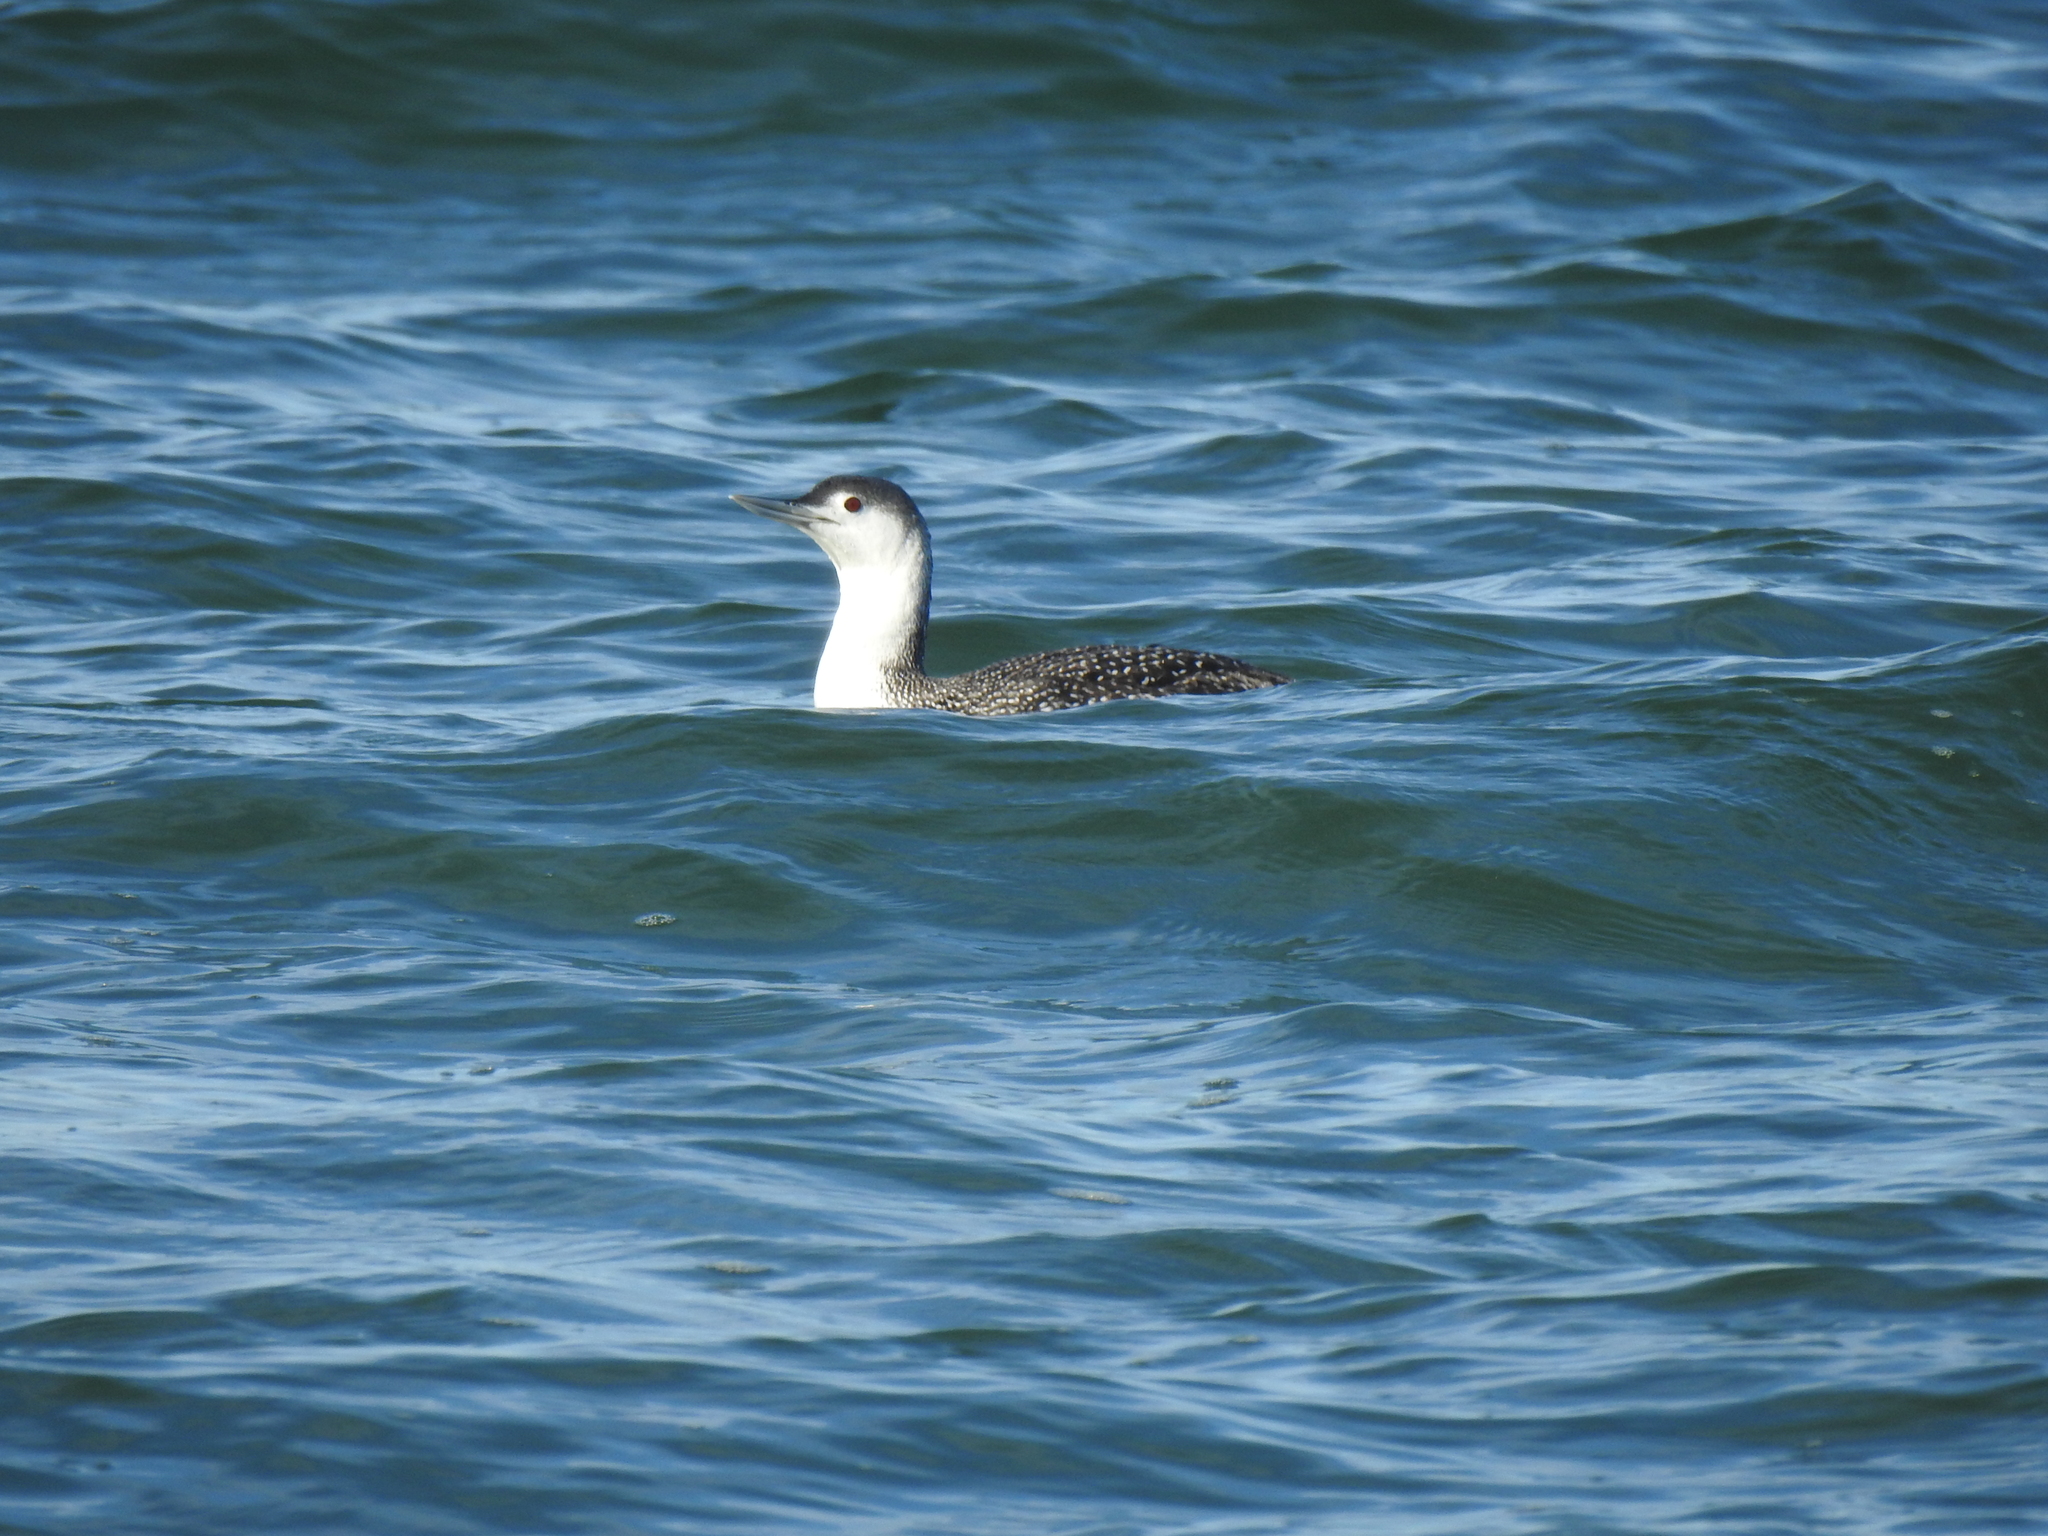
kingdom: Animalia
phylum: Chordata
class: Aves
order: Gaviiformes
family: Gaviidae
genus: Gavia
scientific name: Gavia stellata
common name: Red-throated loon
